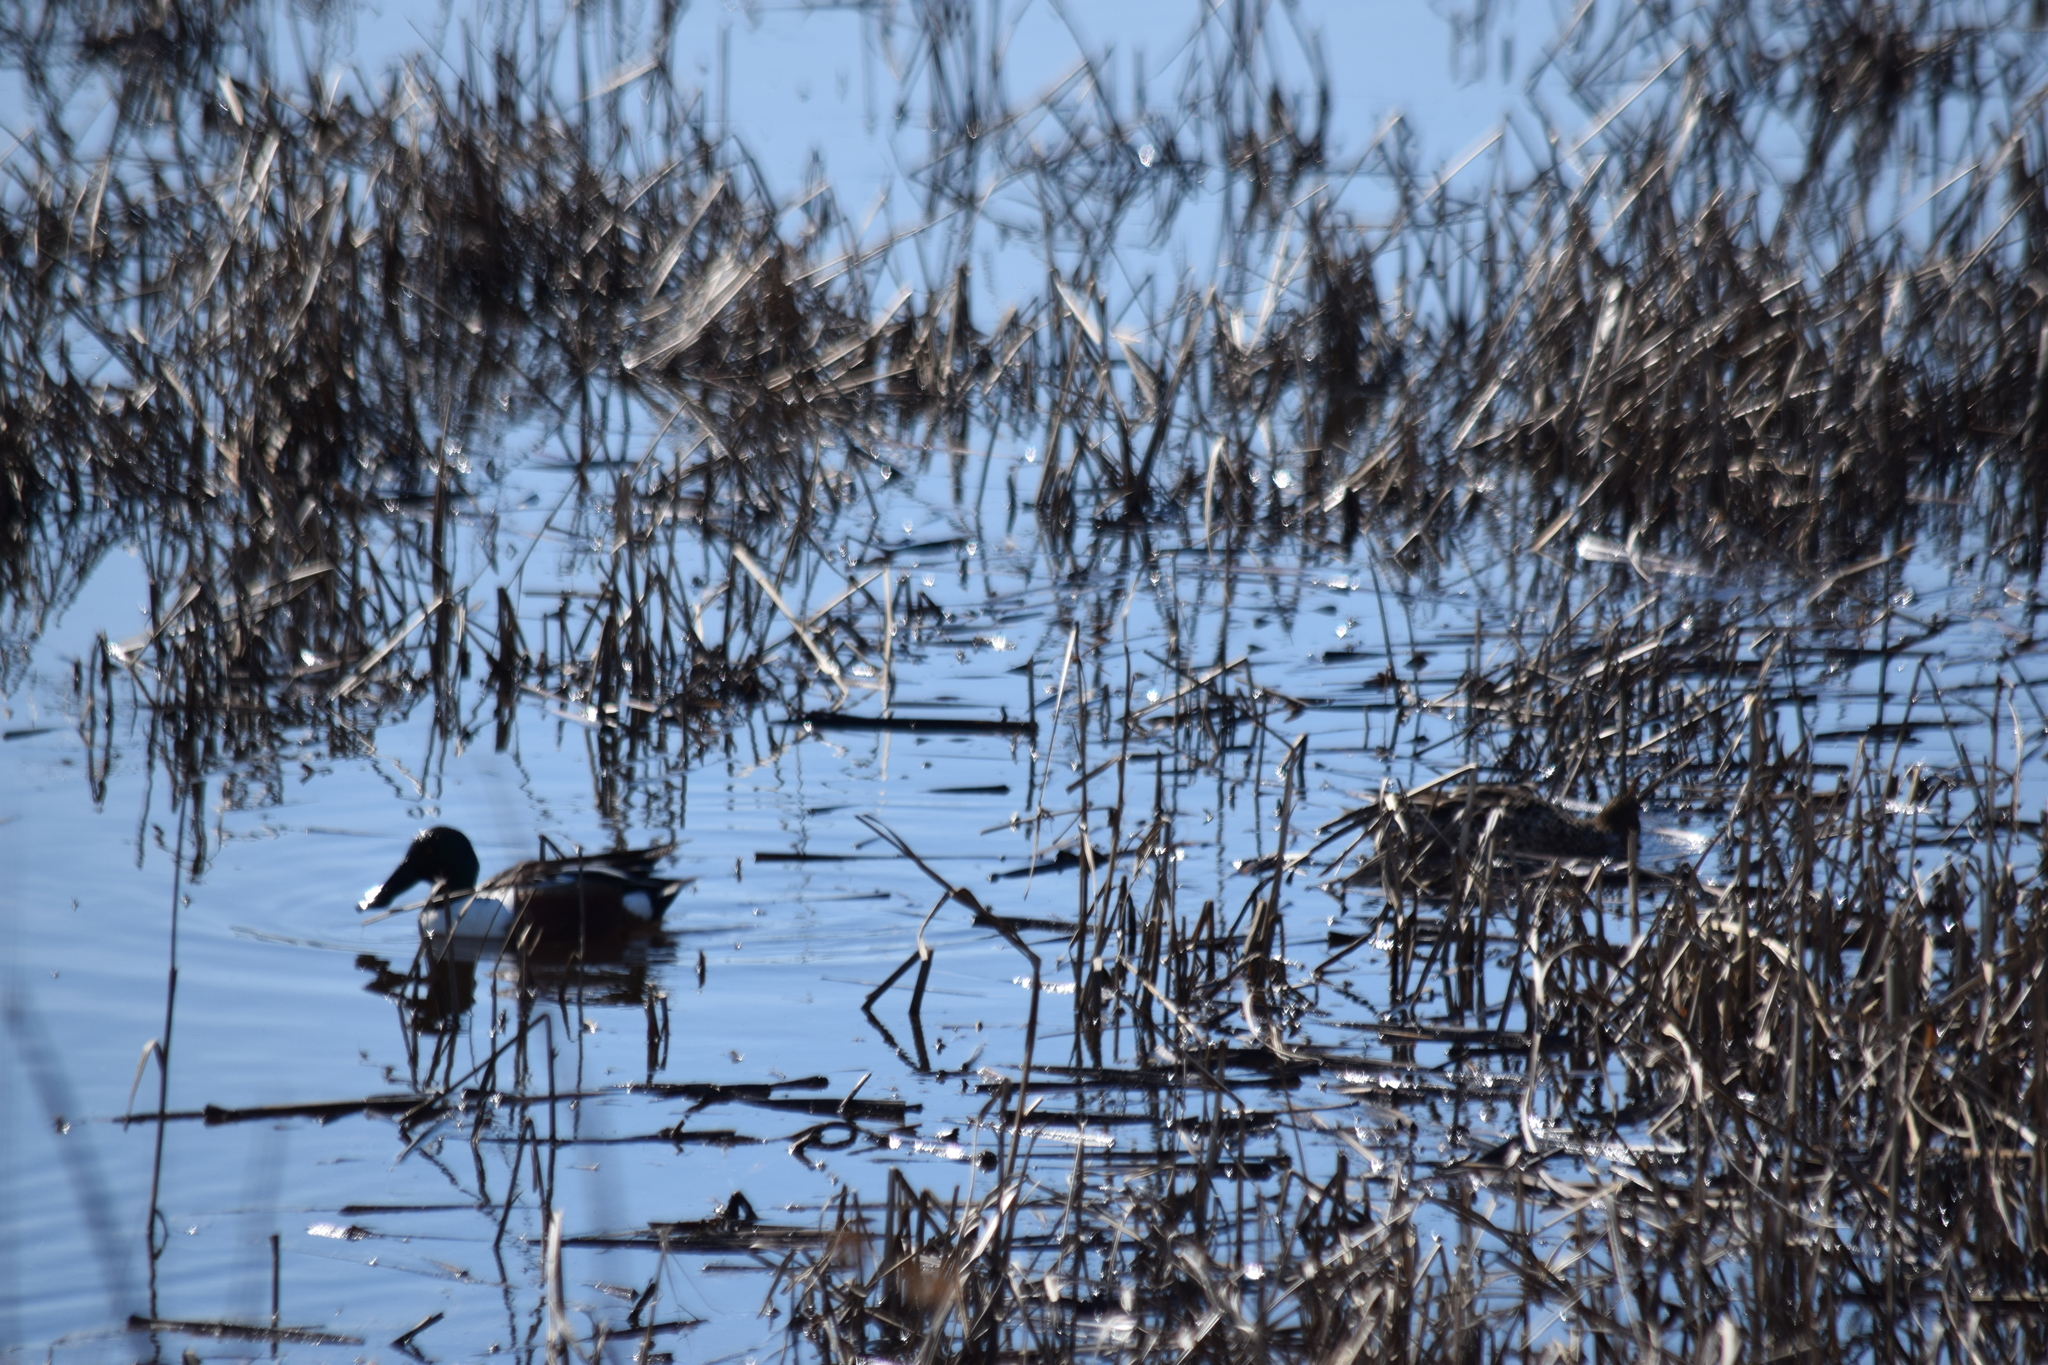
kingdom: Animalia
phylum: Chordata
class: Aves
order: Anseriformes
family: Anatidae
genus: Spatula
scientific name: Spatula clypeata
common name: Northern shoveler
